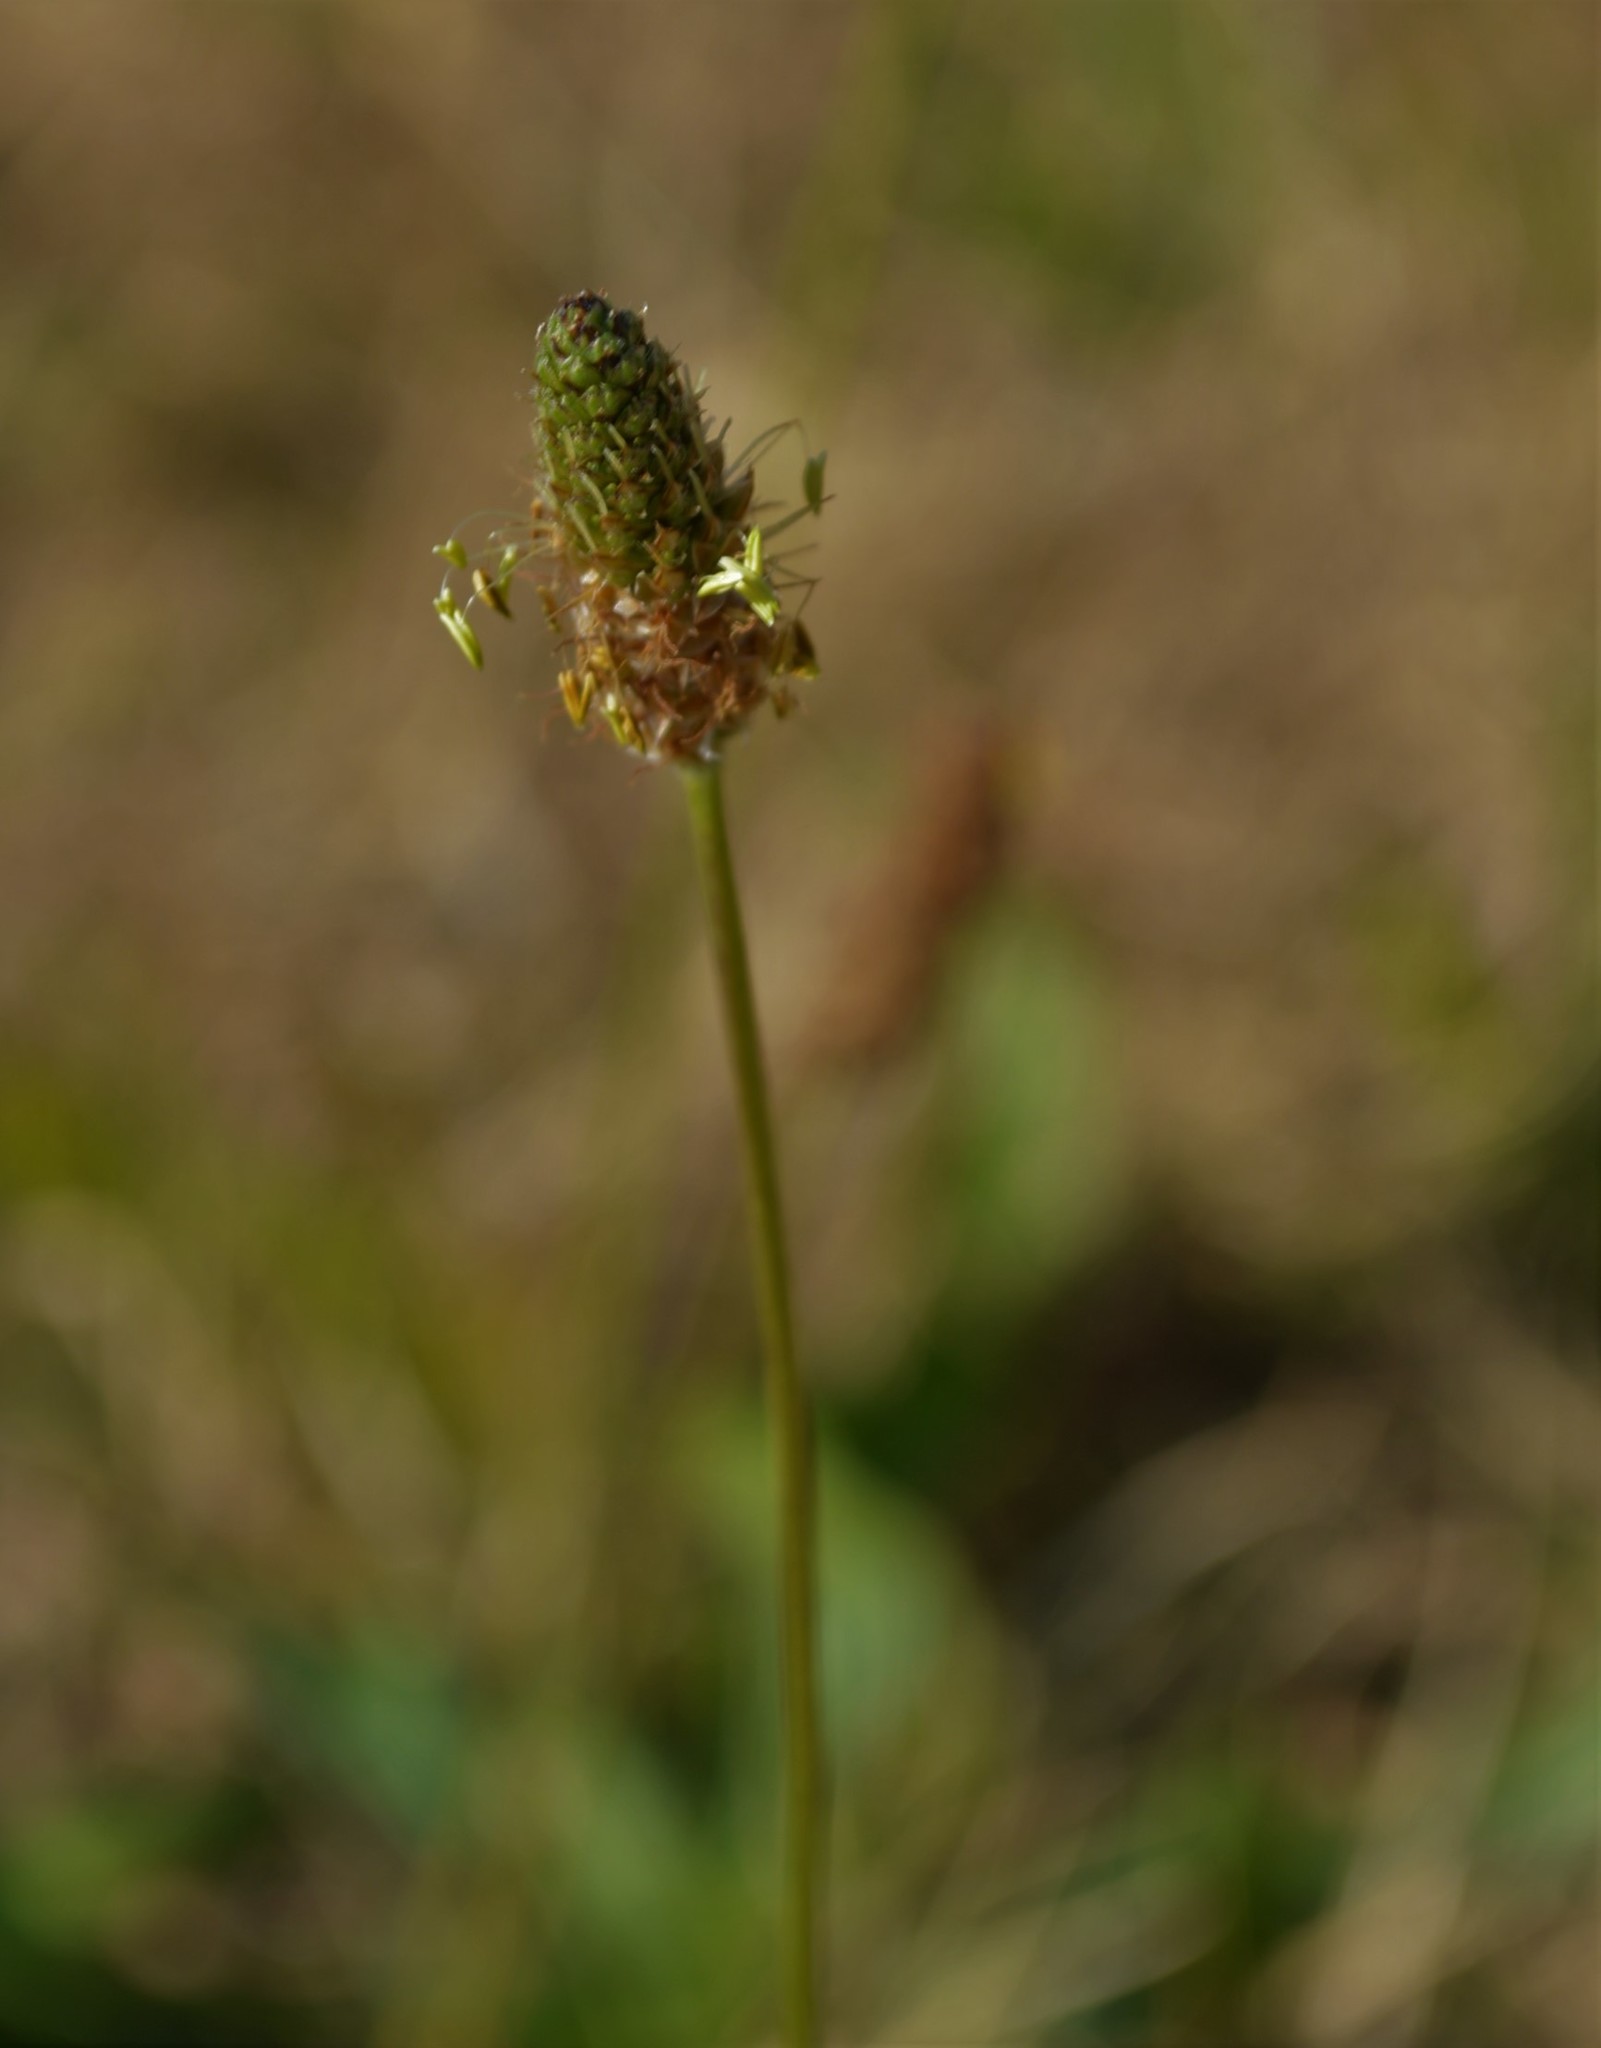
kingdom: Plantae
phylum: Tracheophyta
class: Magnoliopsida
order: Lamiales
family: Plantaginaceae
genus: Plantago
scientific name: Plantago lanceolata
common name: Ribwort plantain
